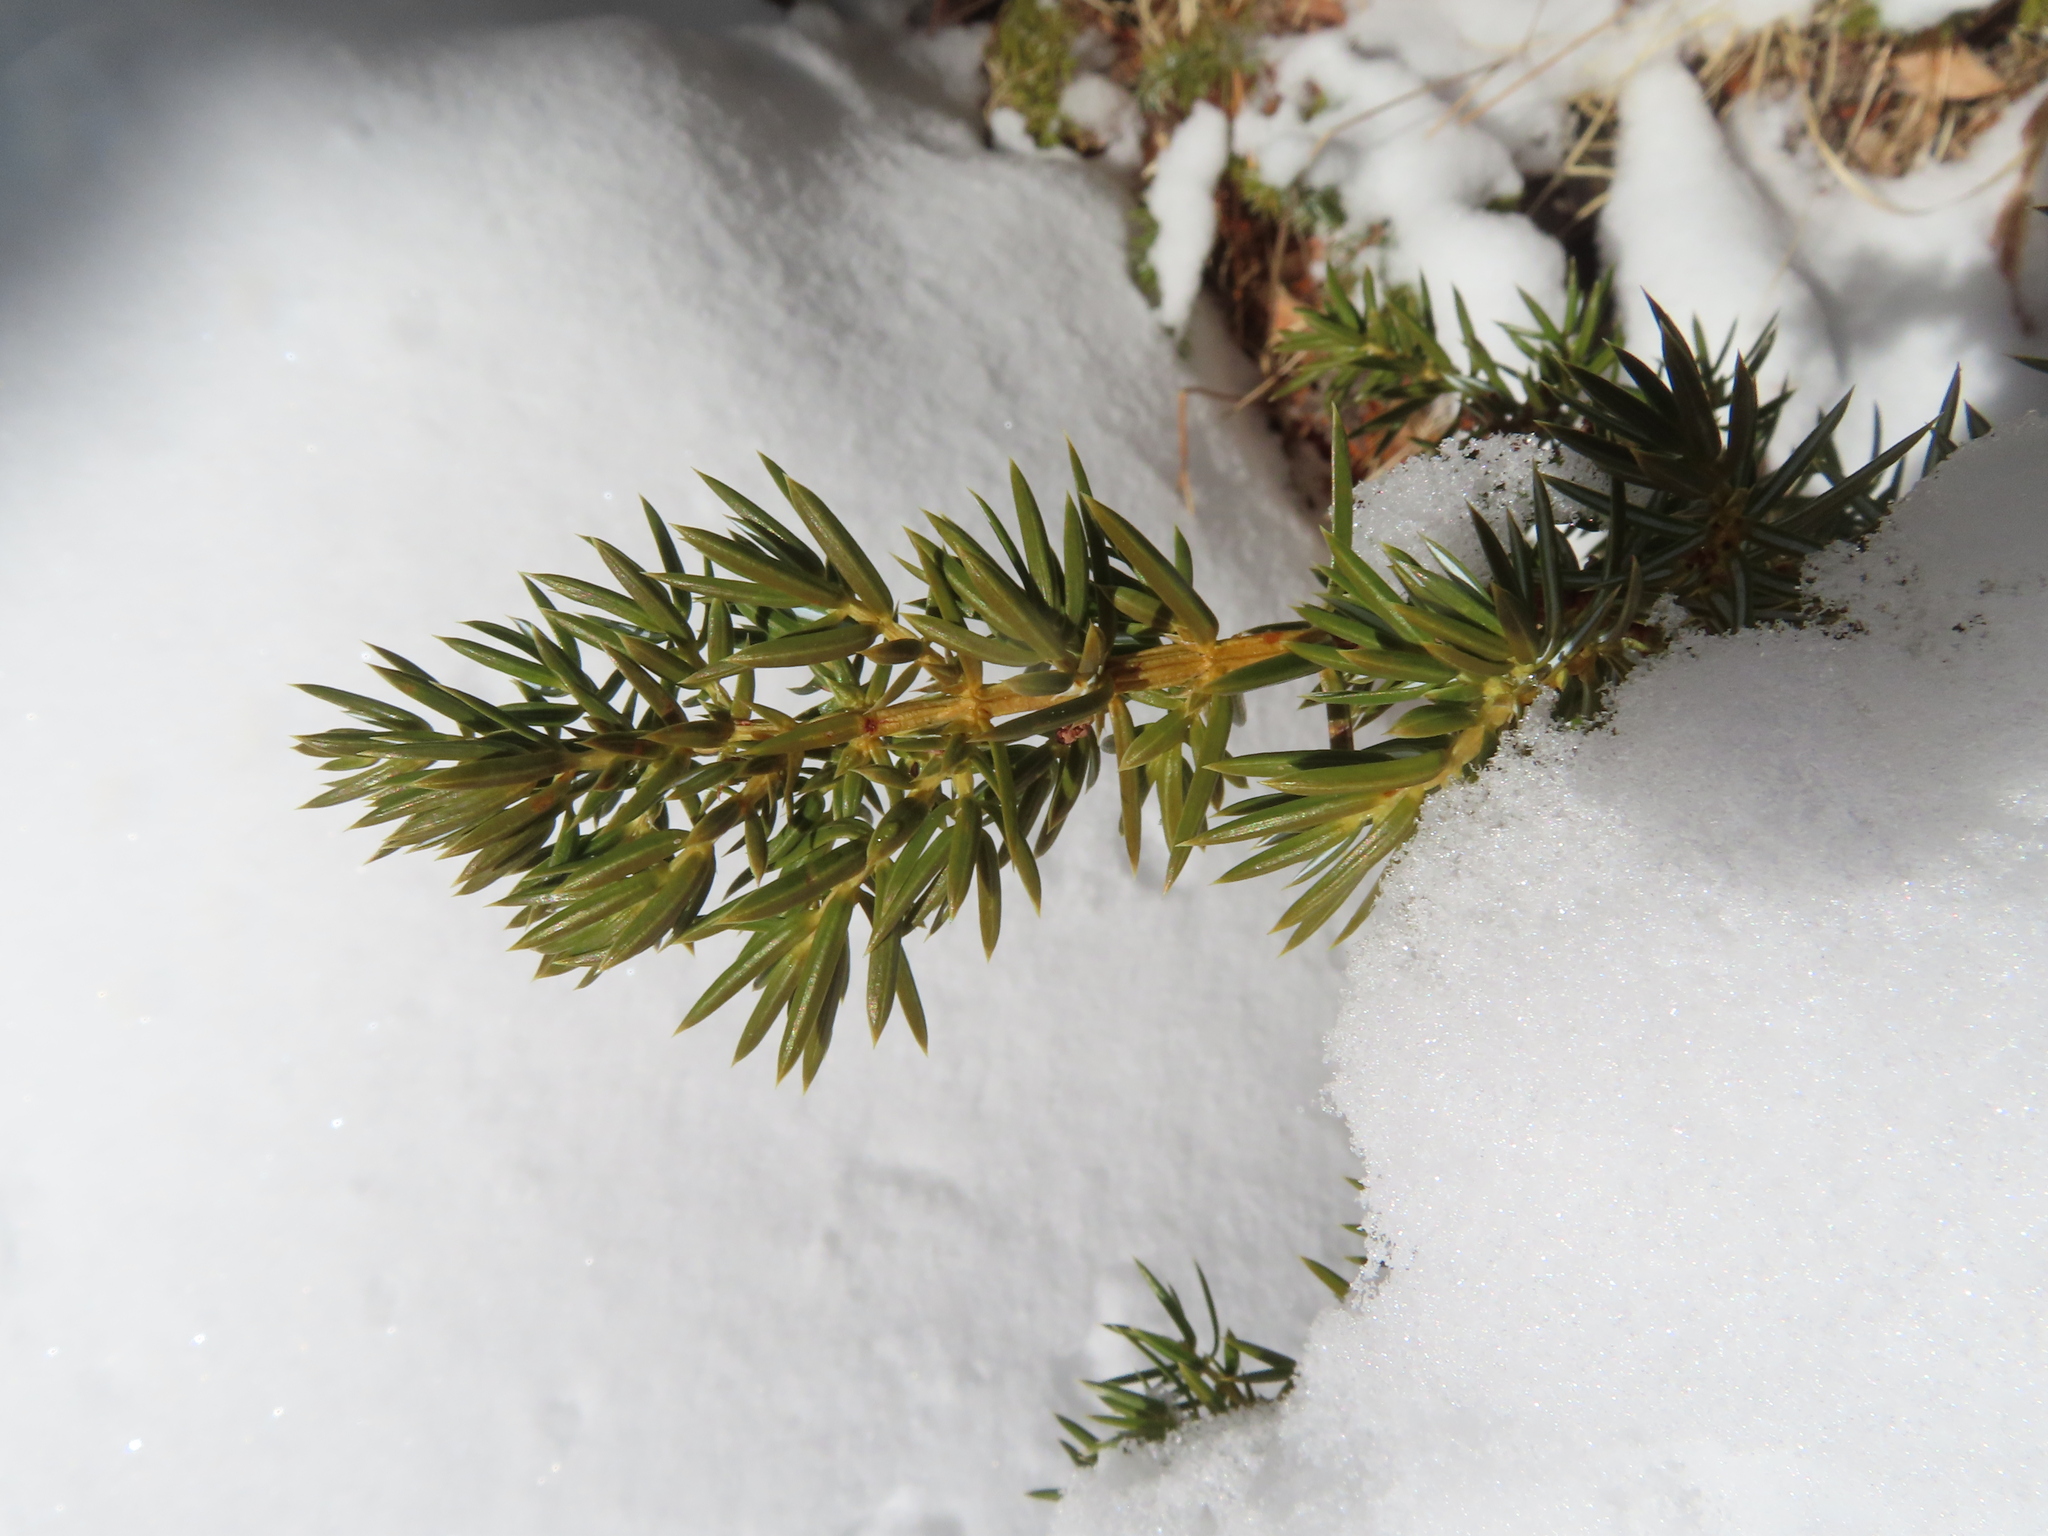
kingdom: Plantae
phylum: Tracheophyta
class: Pinopsida
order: Pinales
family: Cupressaceae
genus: Juniperus
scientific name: Juniperus communis
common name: Common juniper
